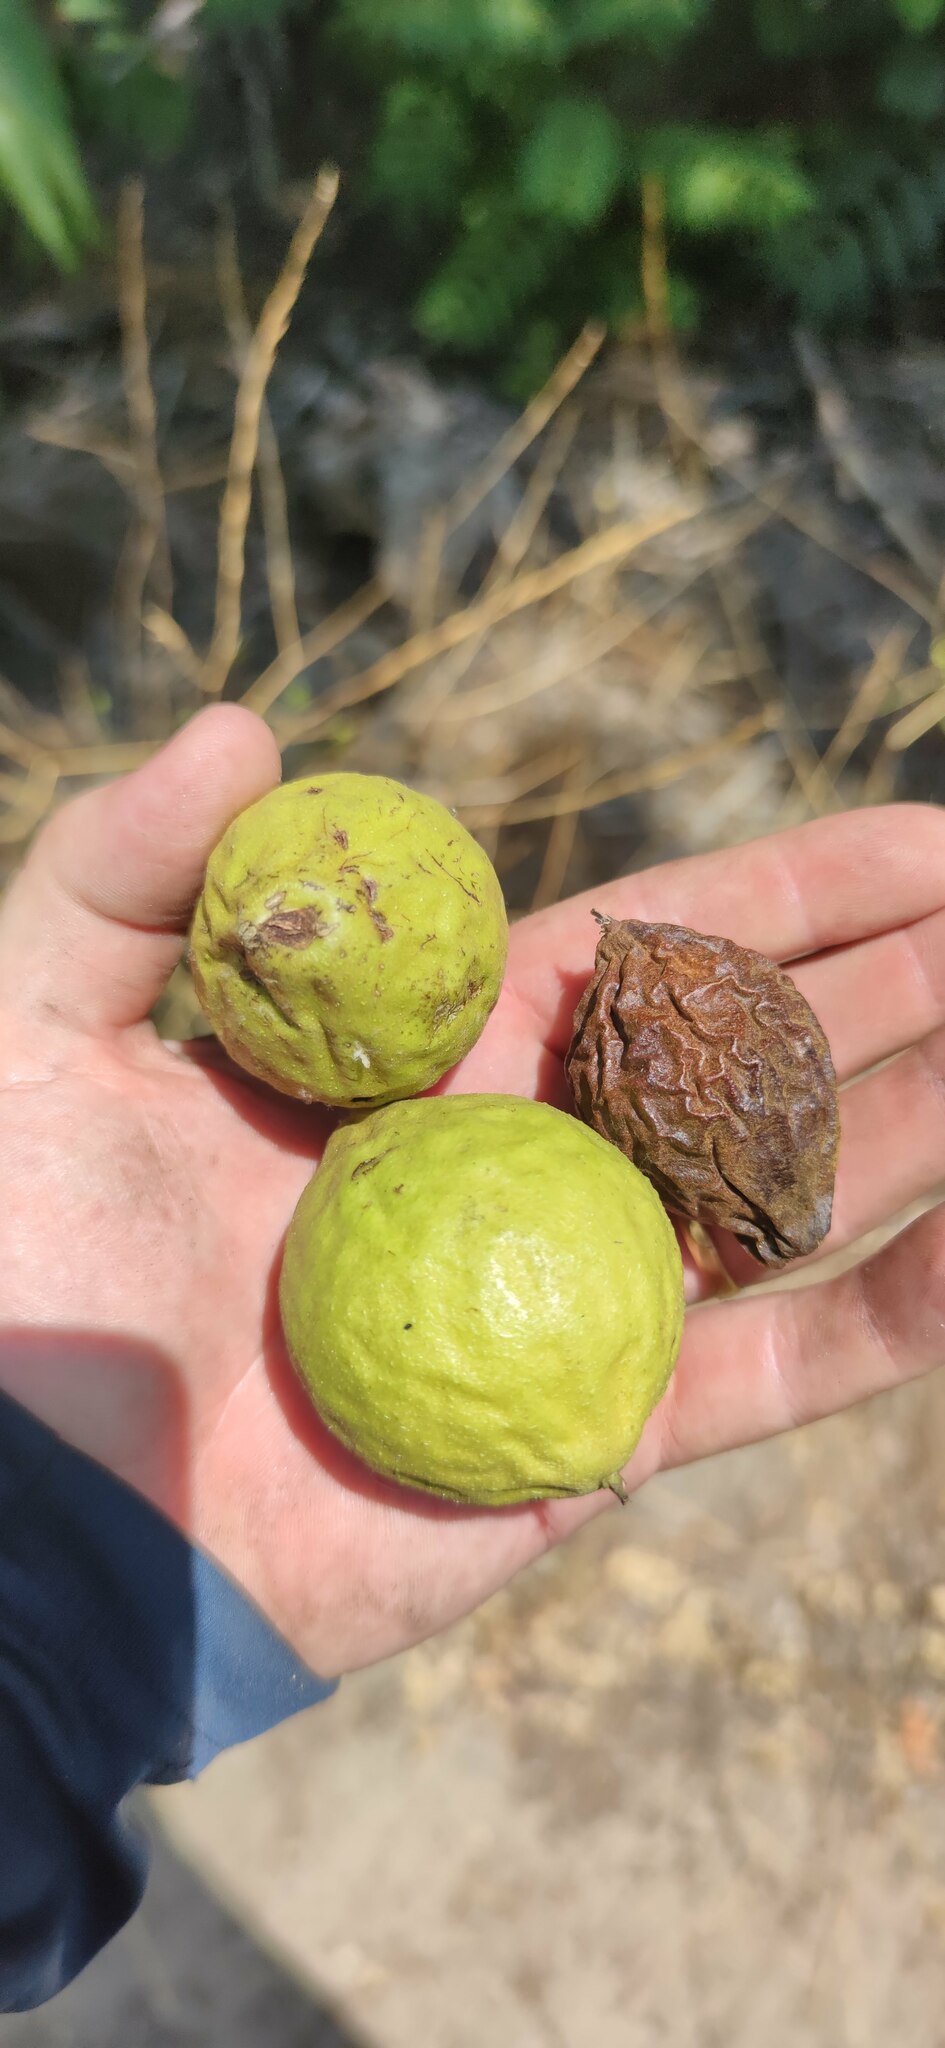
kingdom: Plantae
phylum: Tracheophyta
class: Magnoliopsida
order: Fagales
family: Juglandaceae
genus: Juglans
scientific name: Juglans californica
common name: Southern california black walnut
